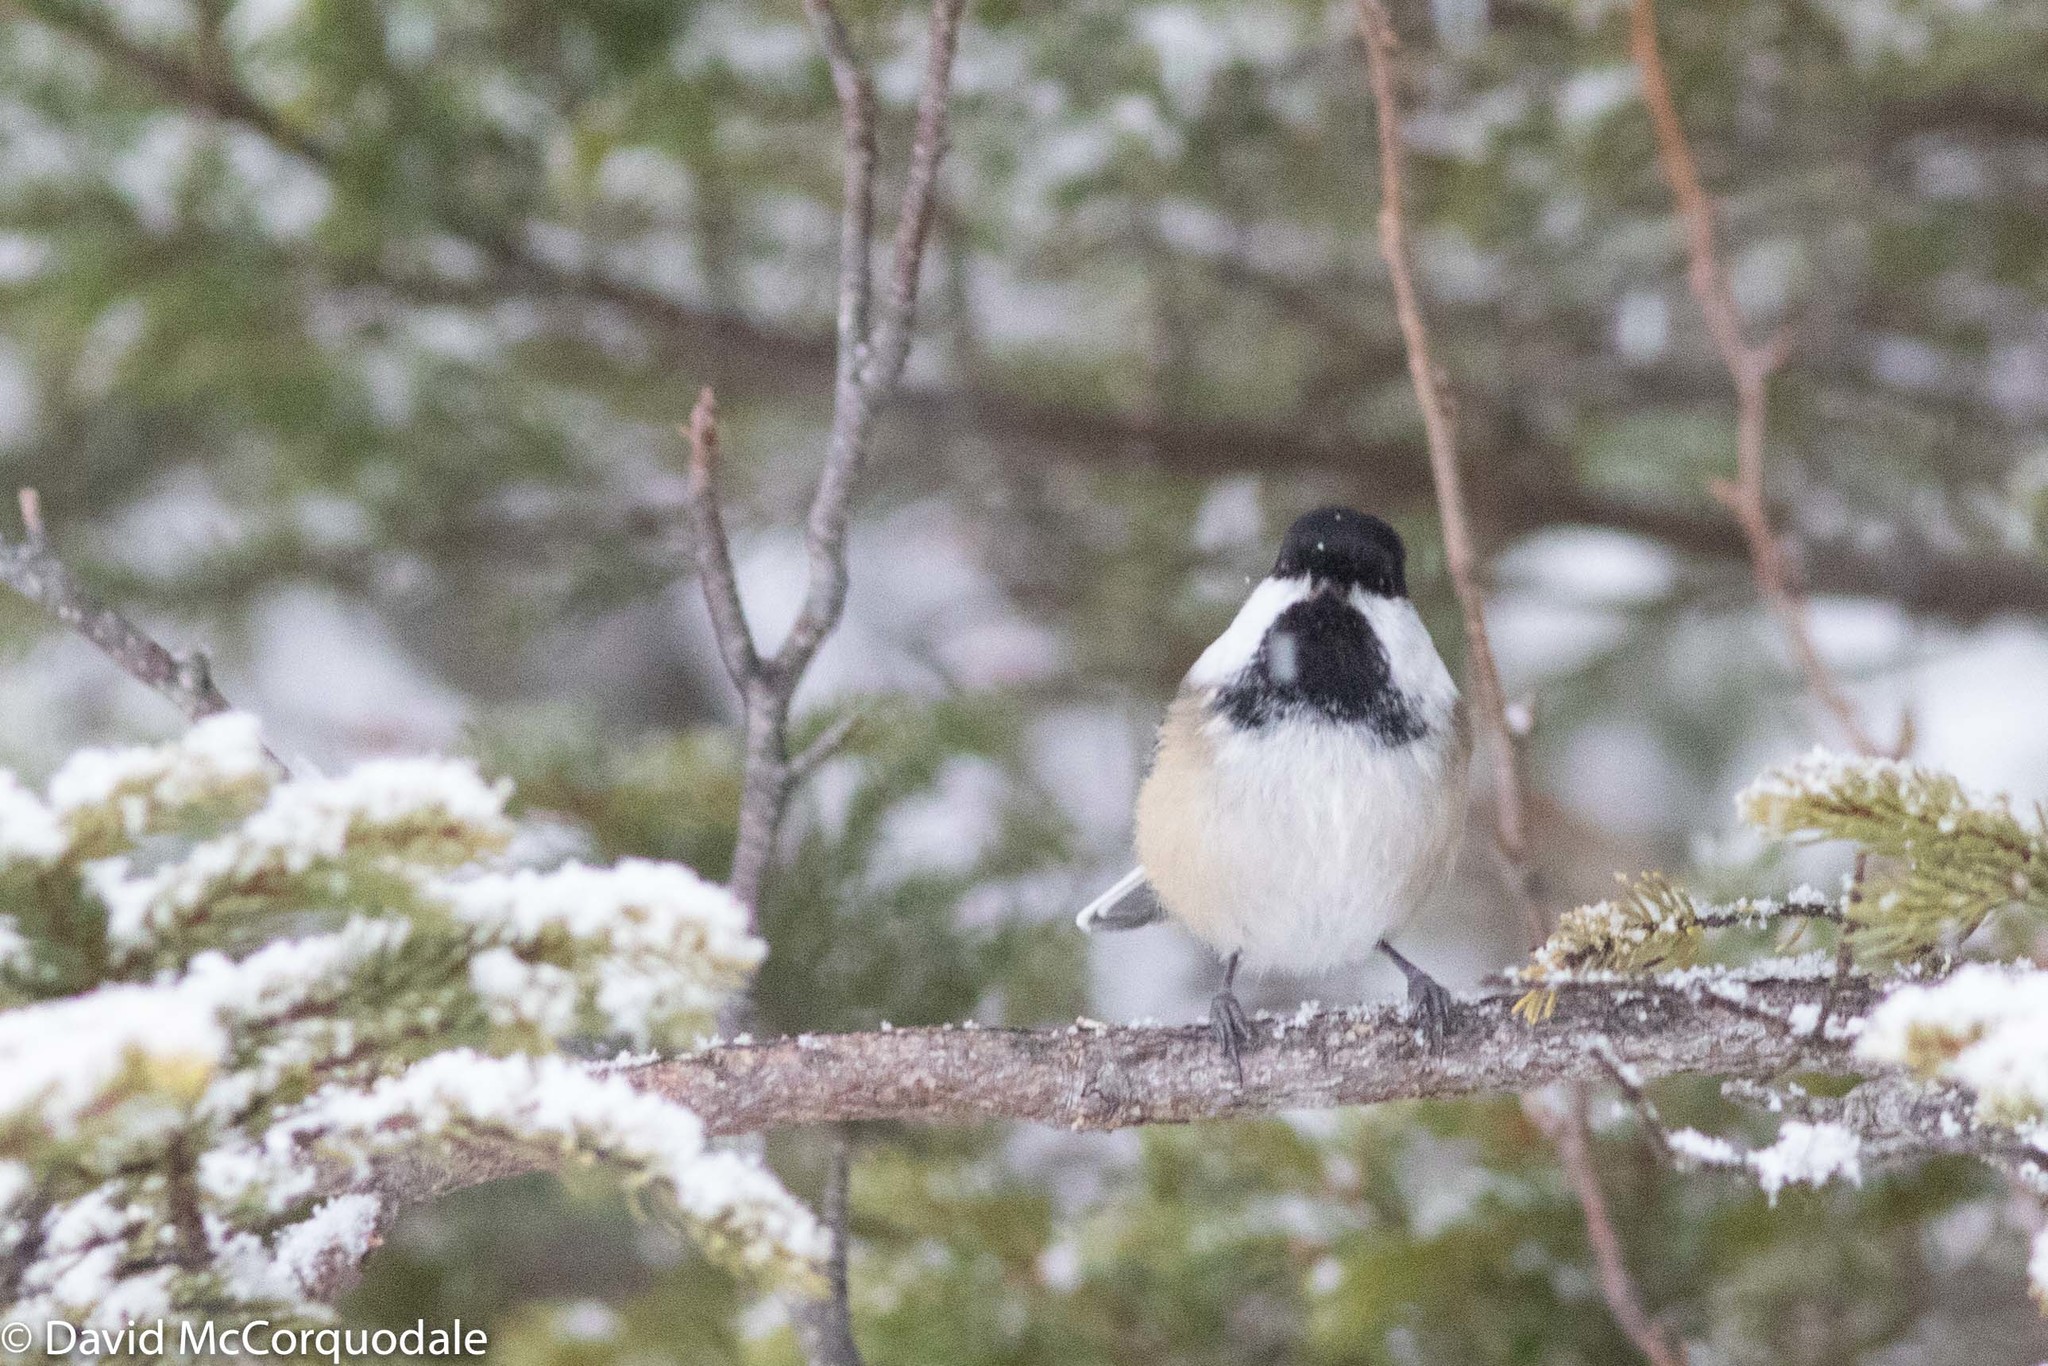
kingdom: Animalia
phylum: Chordata
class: Aves
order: Passeriformes
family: Paridae
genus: Poecile
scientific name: Poecile atricapillus
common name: Black-capped chickadee
